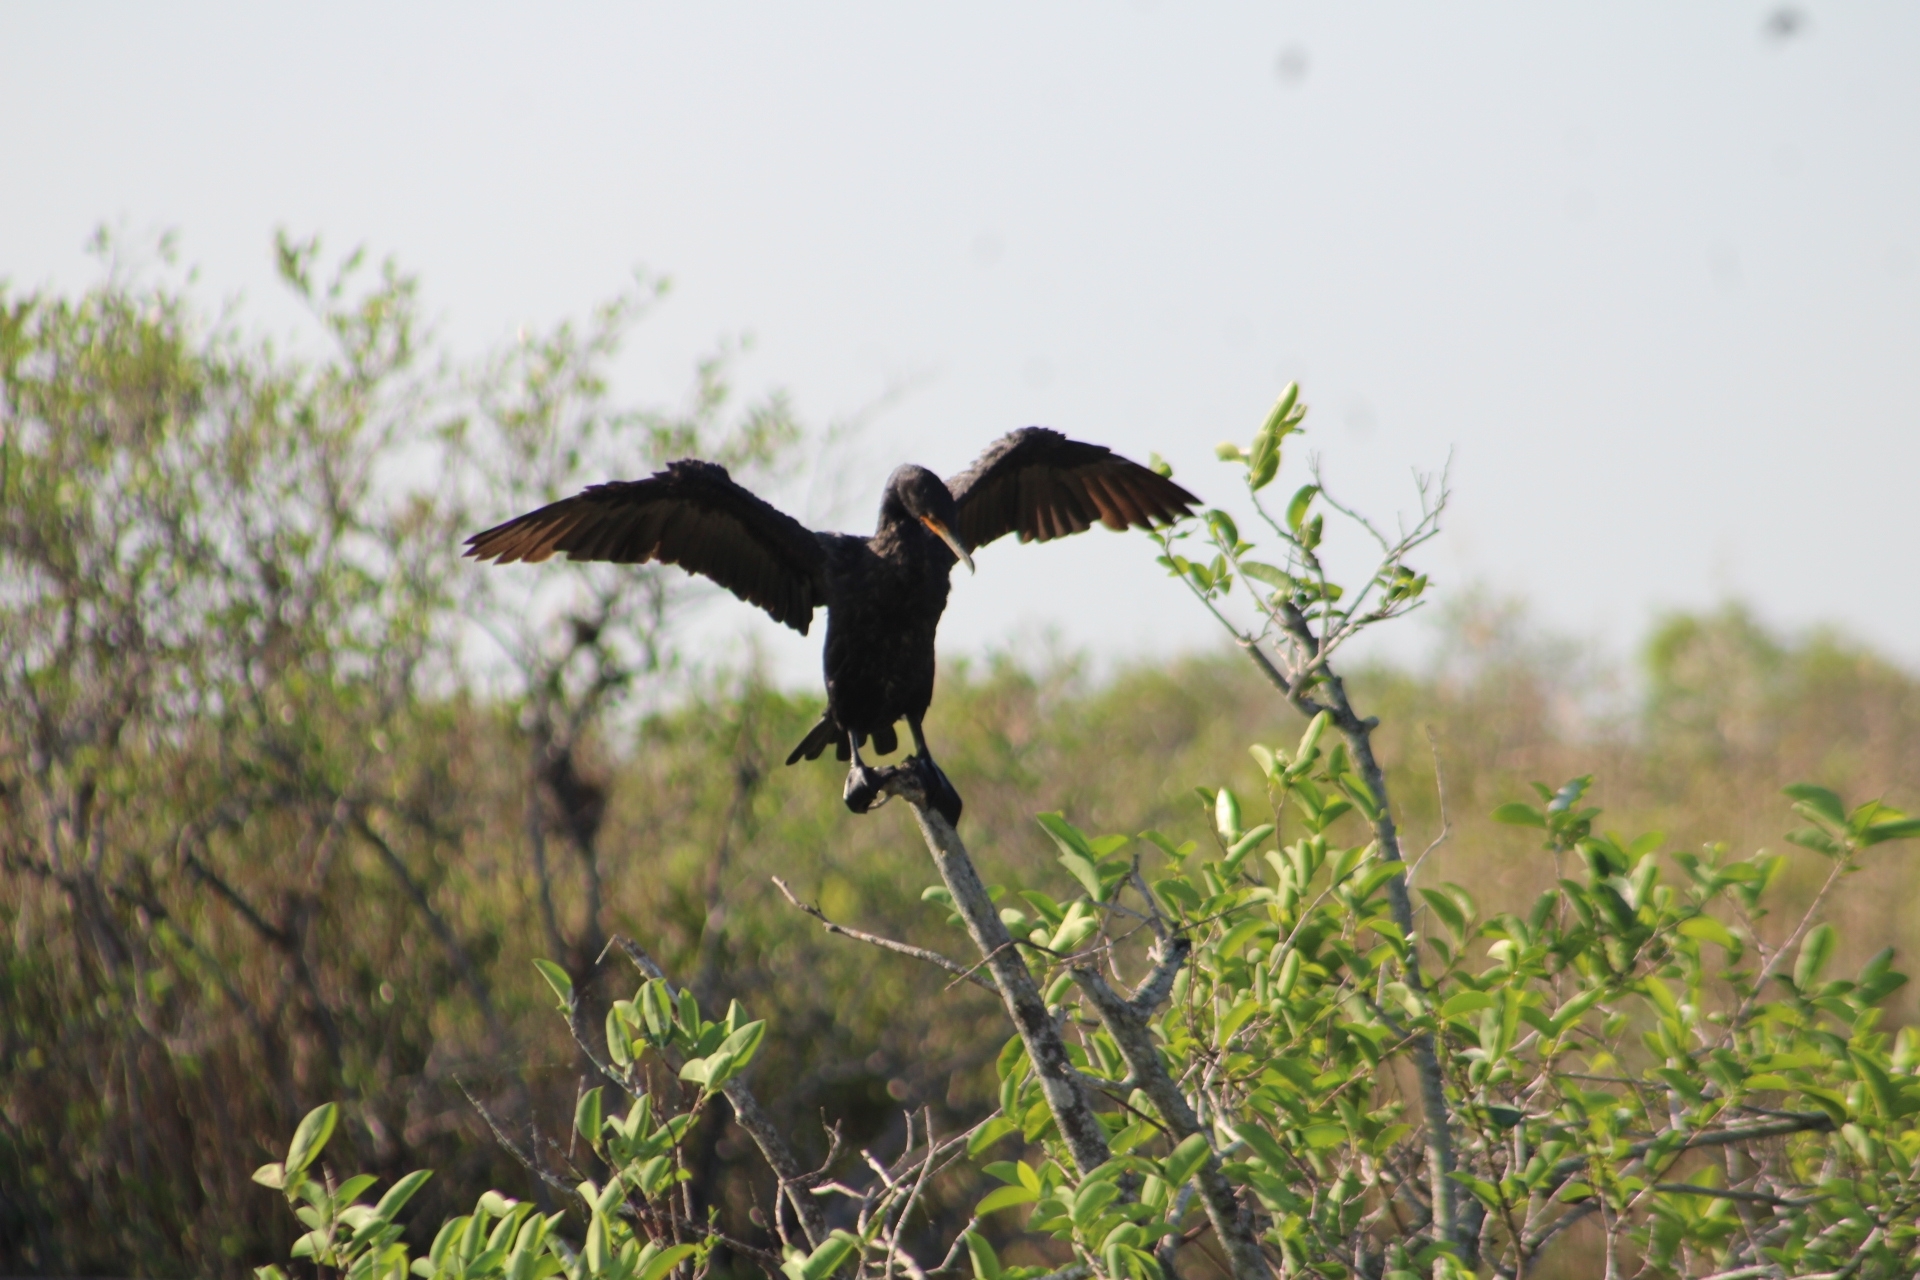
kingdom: Animalia
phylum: Chordata
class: Aves
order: Suliformes
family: Phalacrocoracidae
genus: Phalacrocorax
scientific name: Phalacrocorax auritus
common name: Double-crested cormorant
